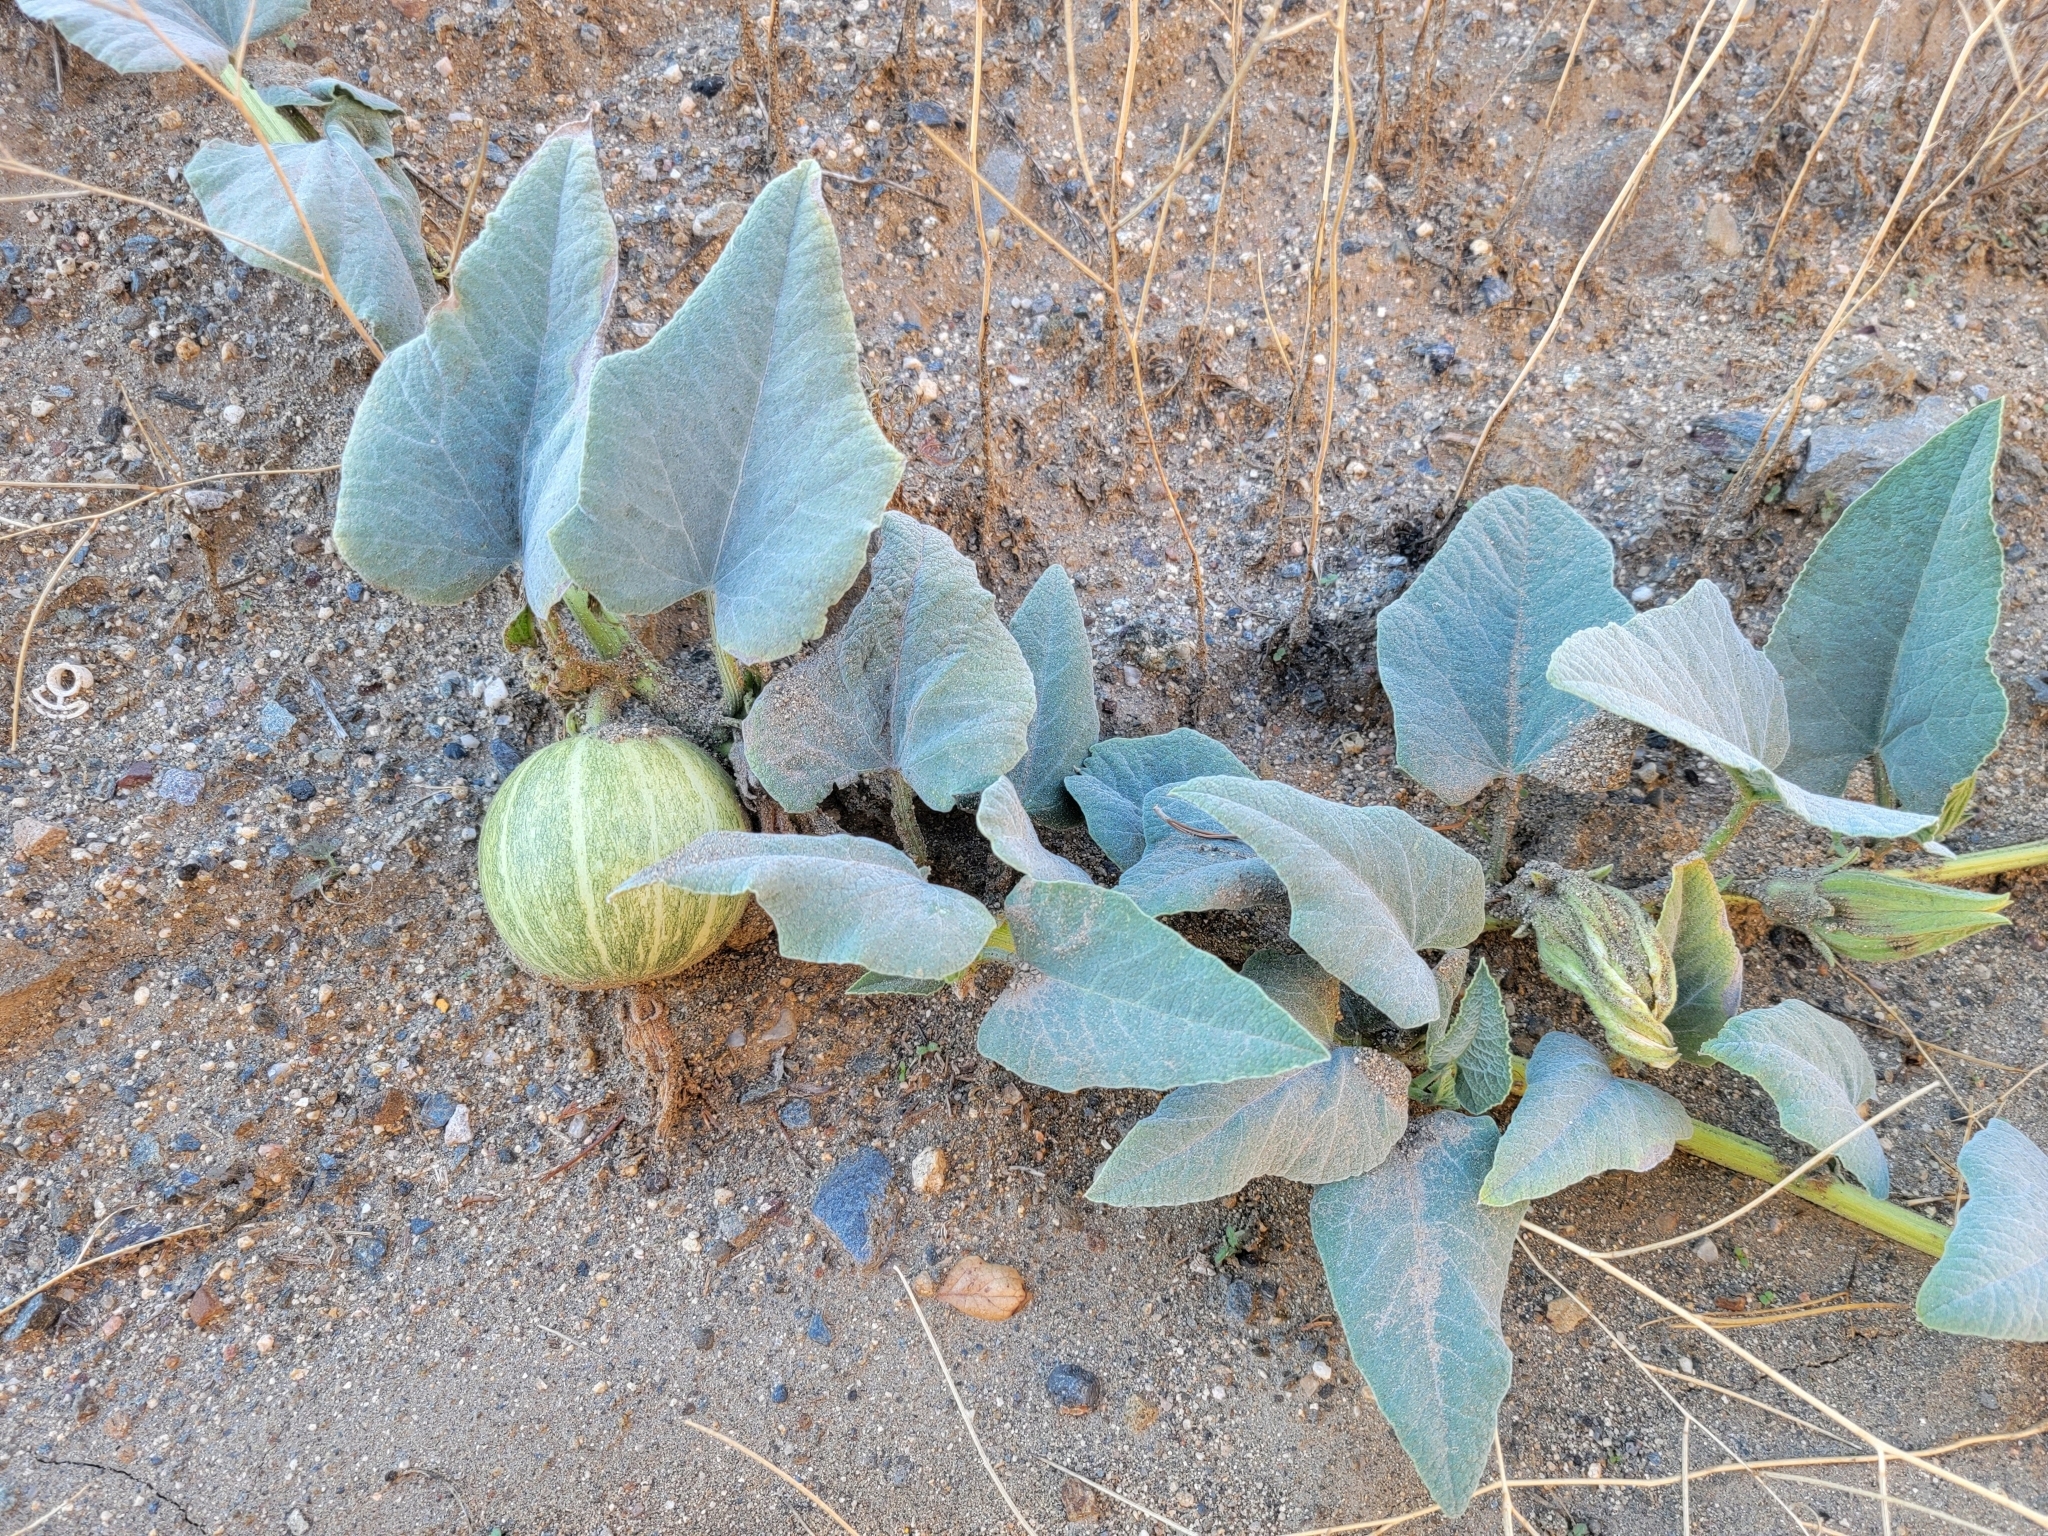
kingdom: Plantae
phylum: Tracheophyta
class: Magnoliopsida
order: Cucurbitales
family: Cucurbitaceae
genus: Cucurbita
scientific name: Cucurbita foetidissima
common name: Buffalo gourd
